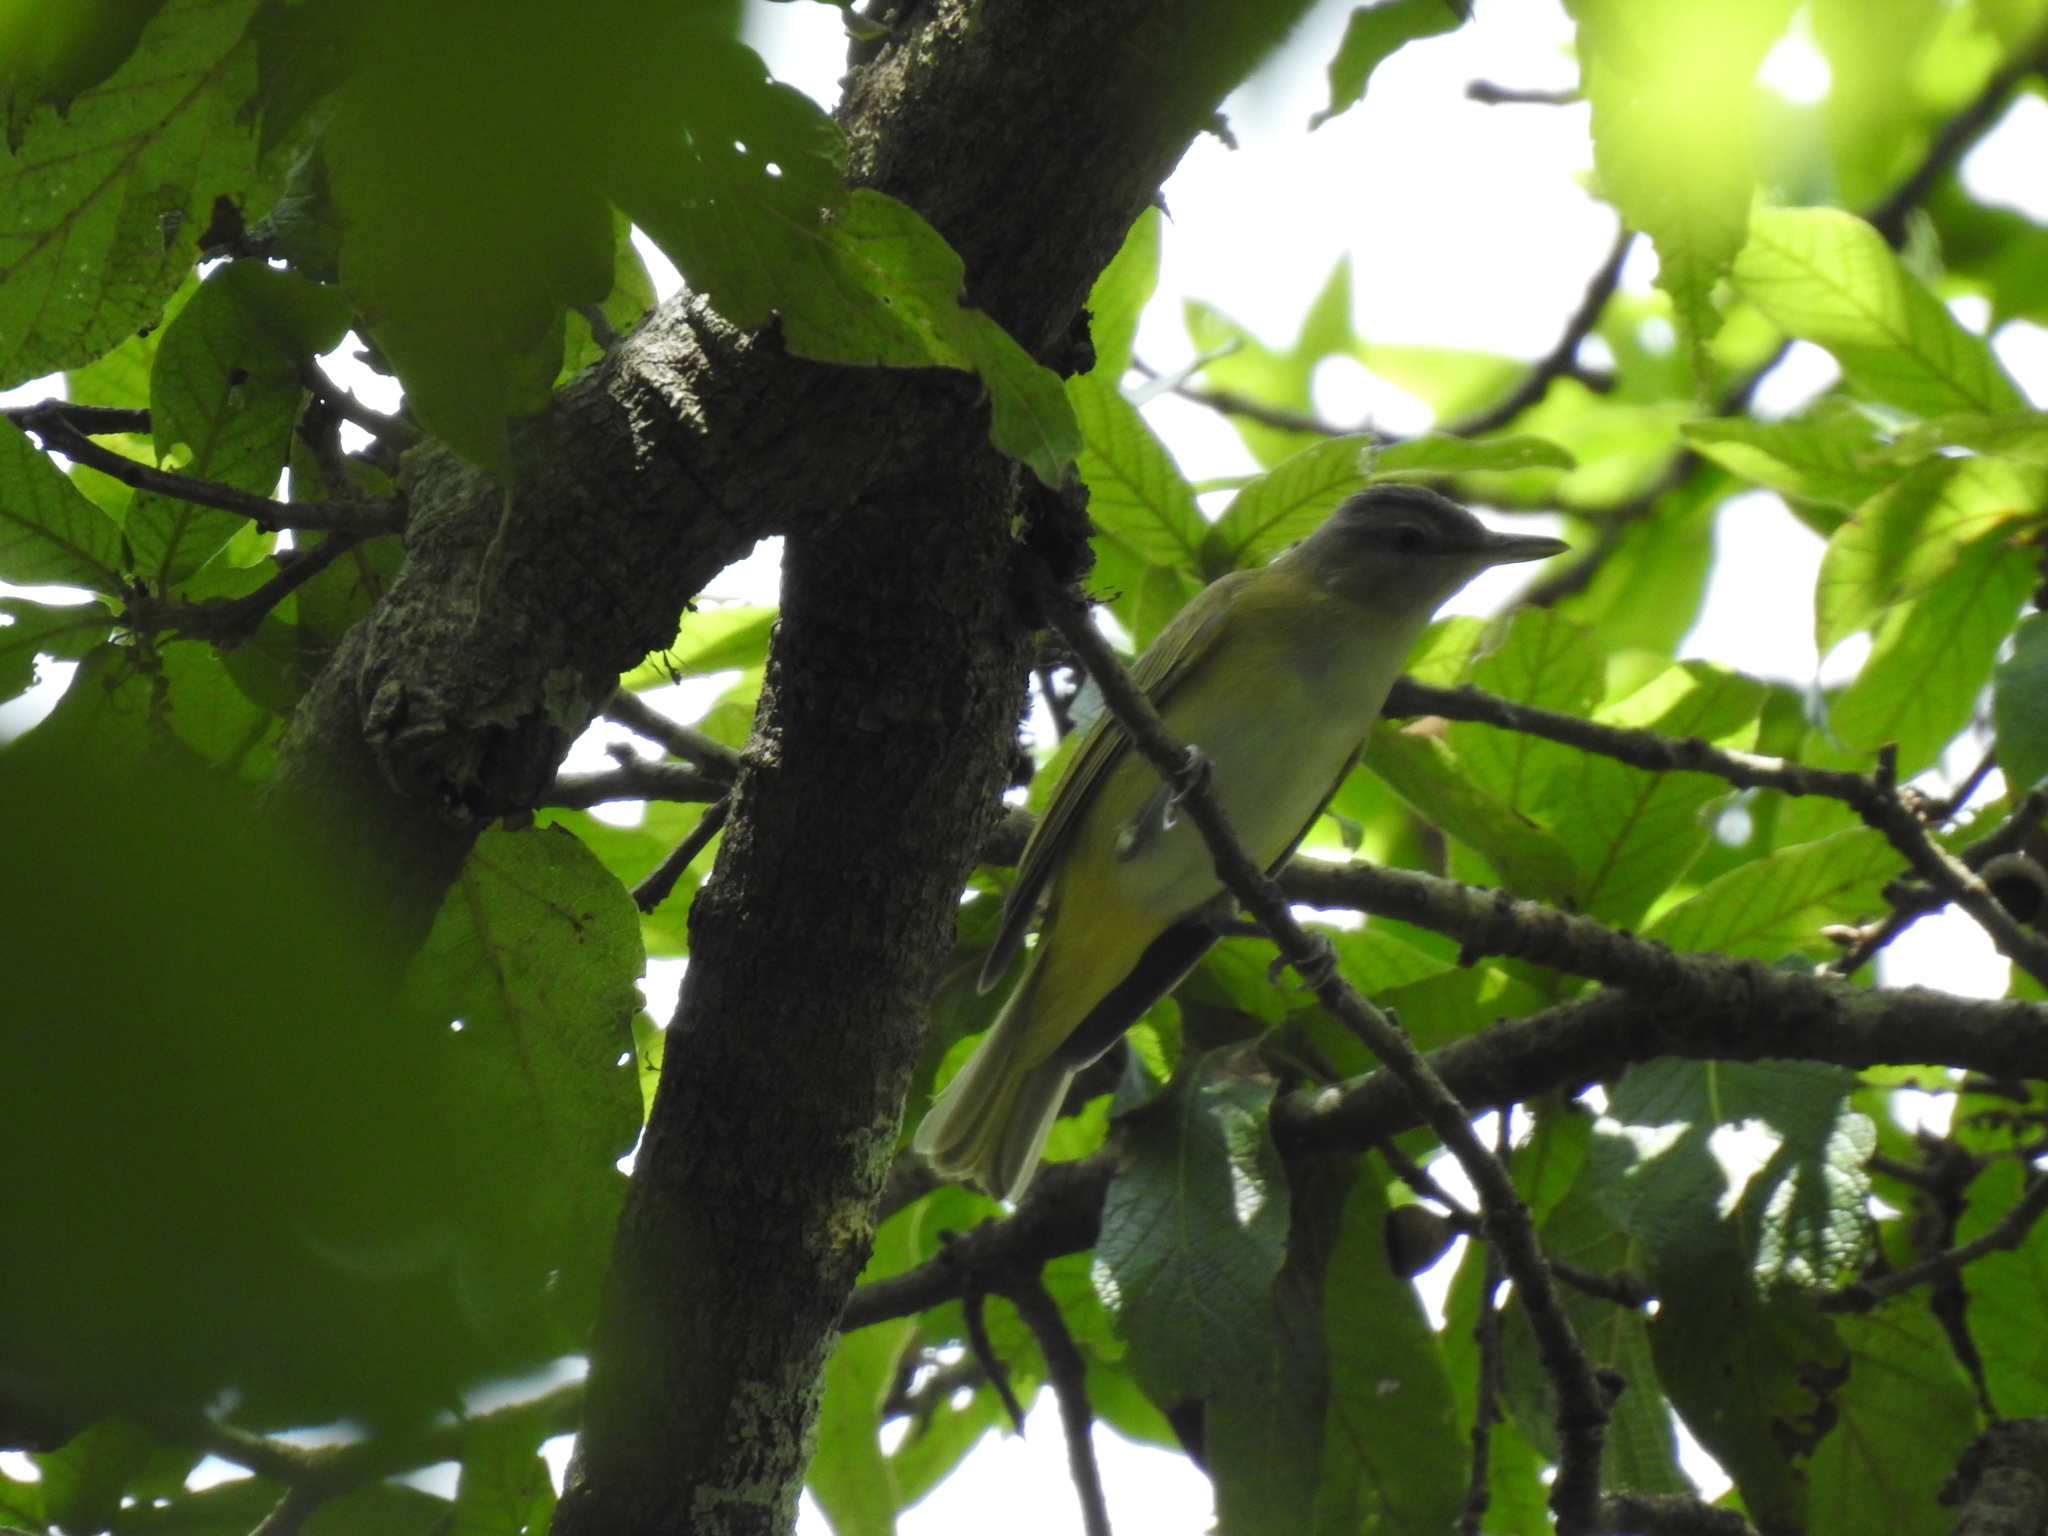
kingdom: Animalia
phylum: Chordata
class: Aves
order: Passeriformes
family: Vireonidae
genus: Vireo
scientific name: Vireo flavoviridis
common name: Yellow-green vireo
